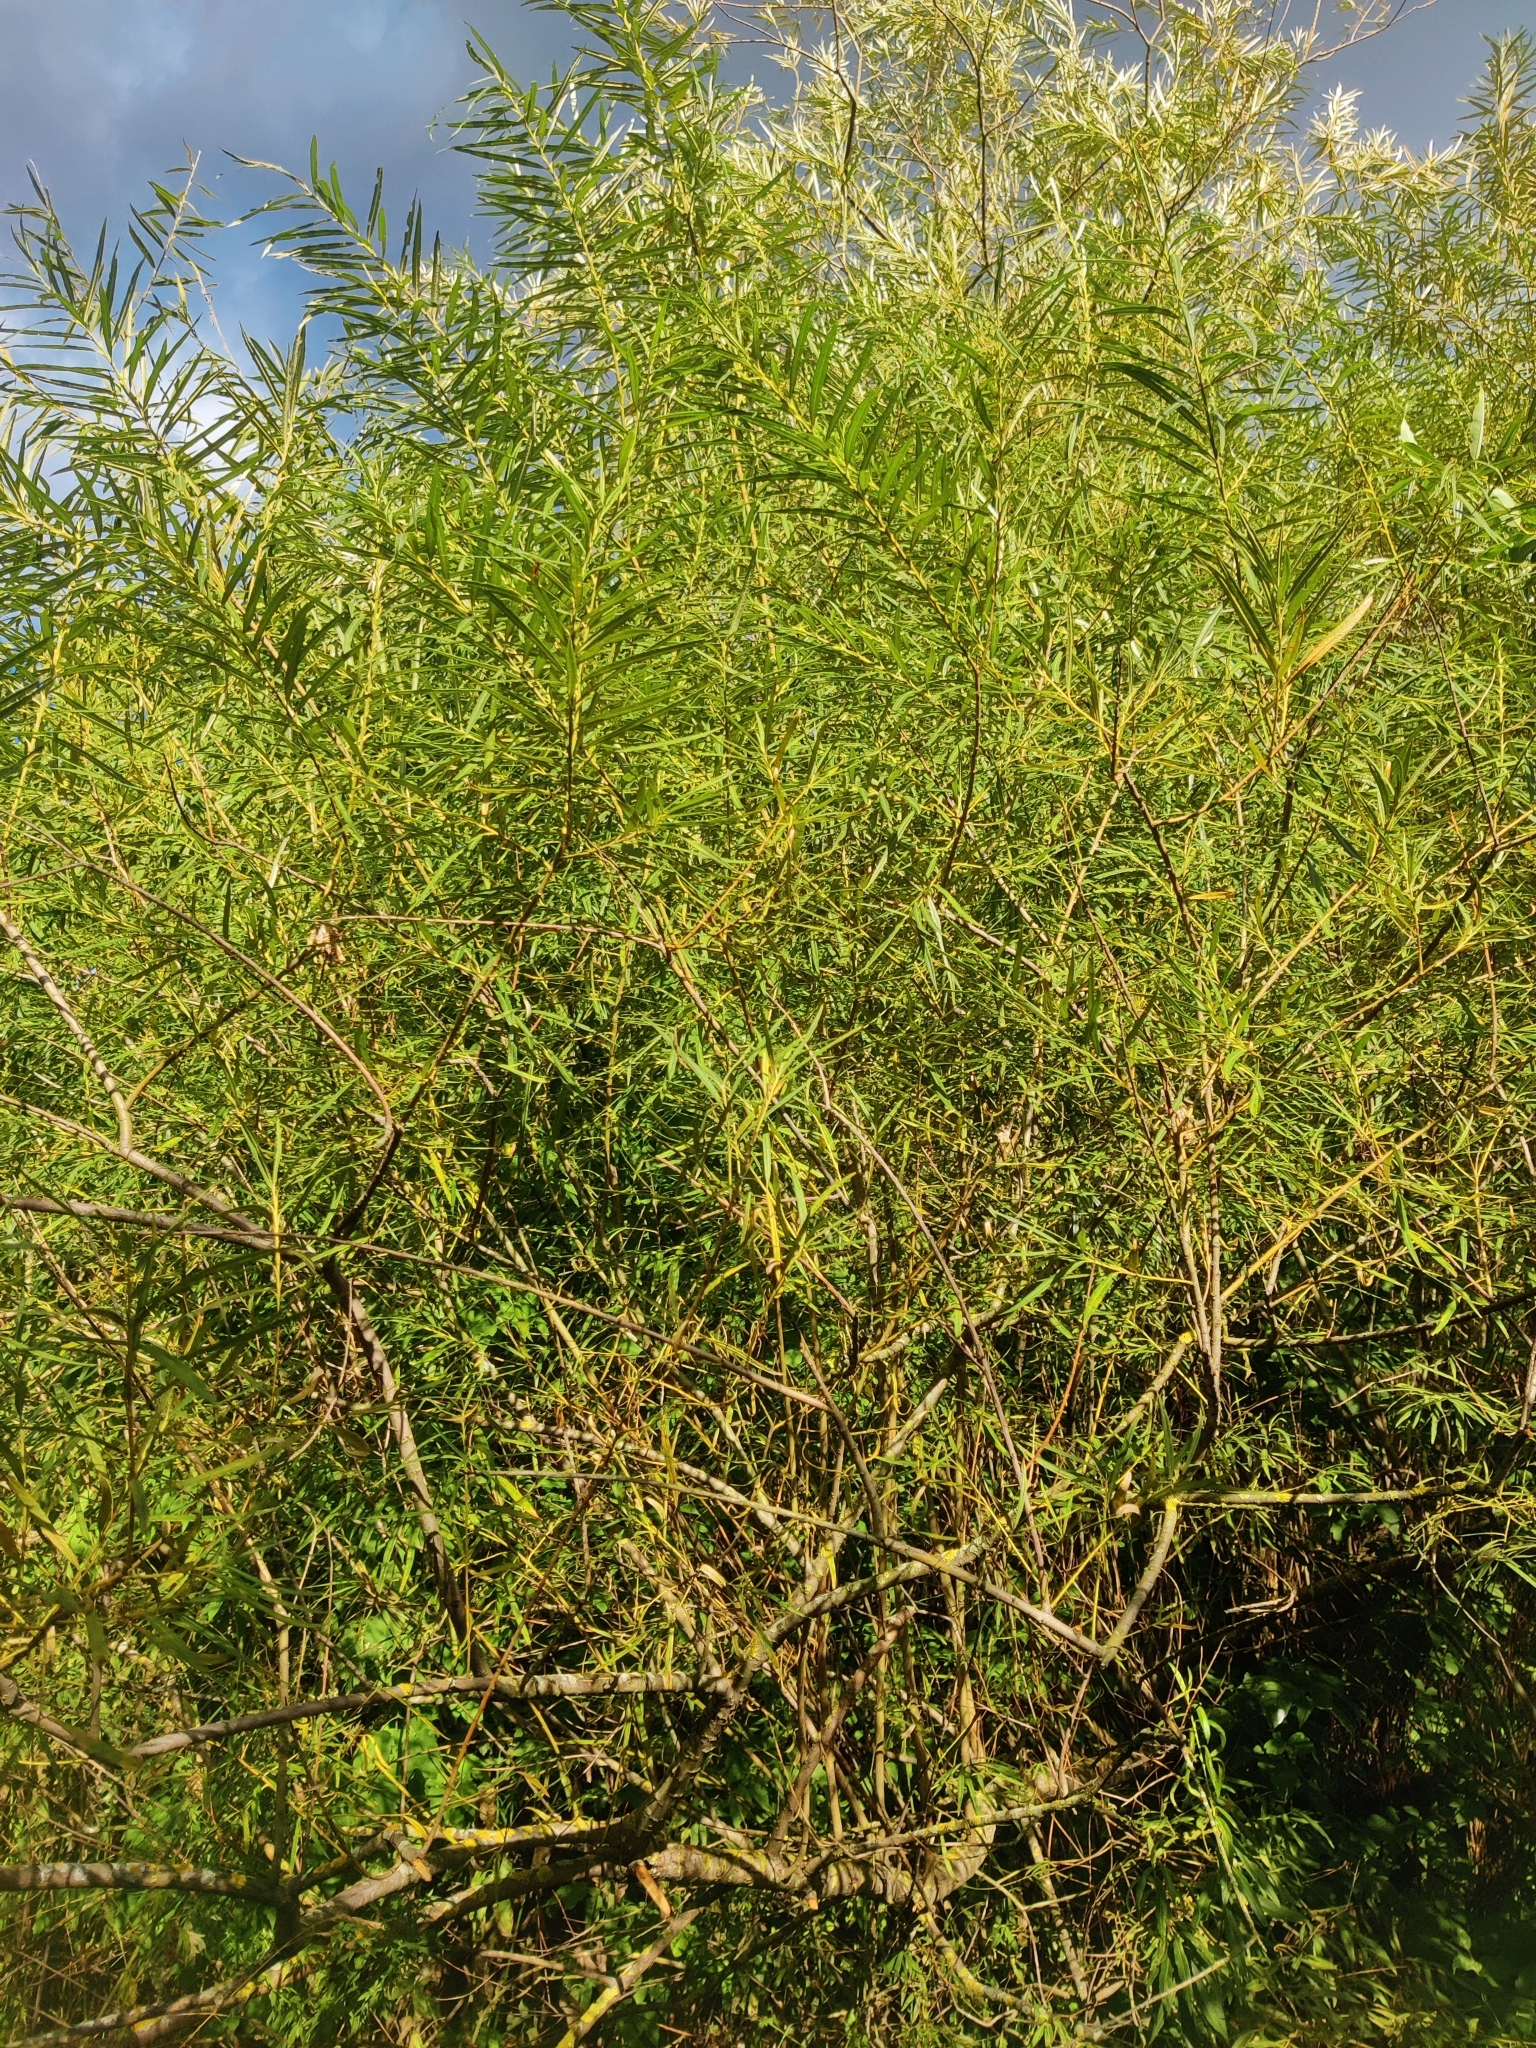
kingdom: Plantae
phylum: Tracheophyta
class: Magnoliopsida
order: Malpighiales
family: Salicaceae
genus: Salix
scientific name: Salix viminalis
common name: Osier
